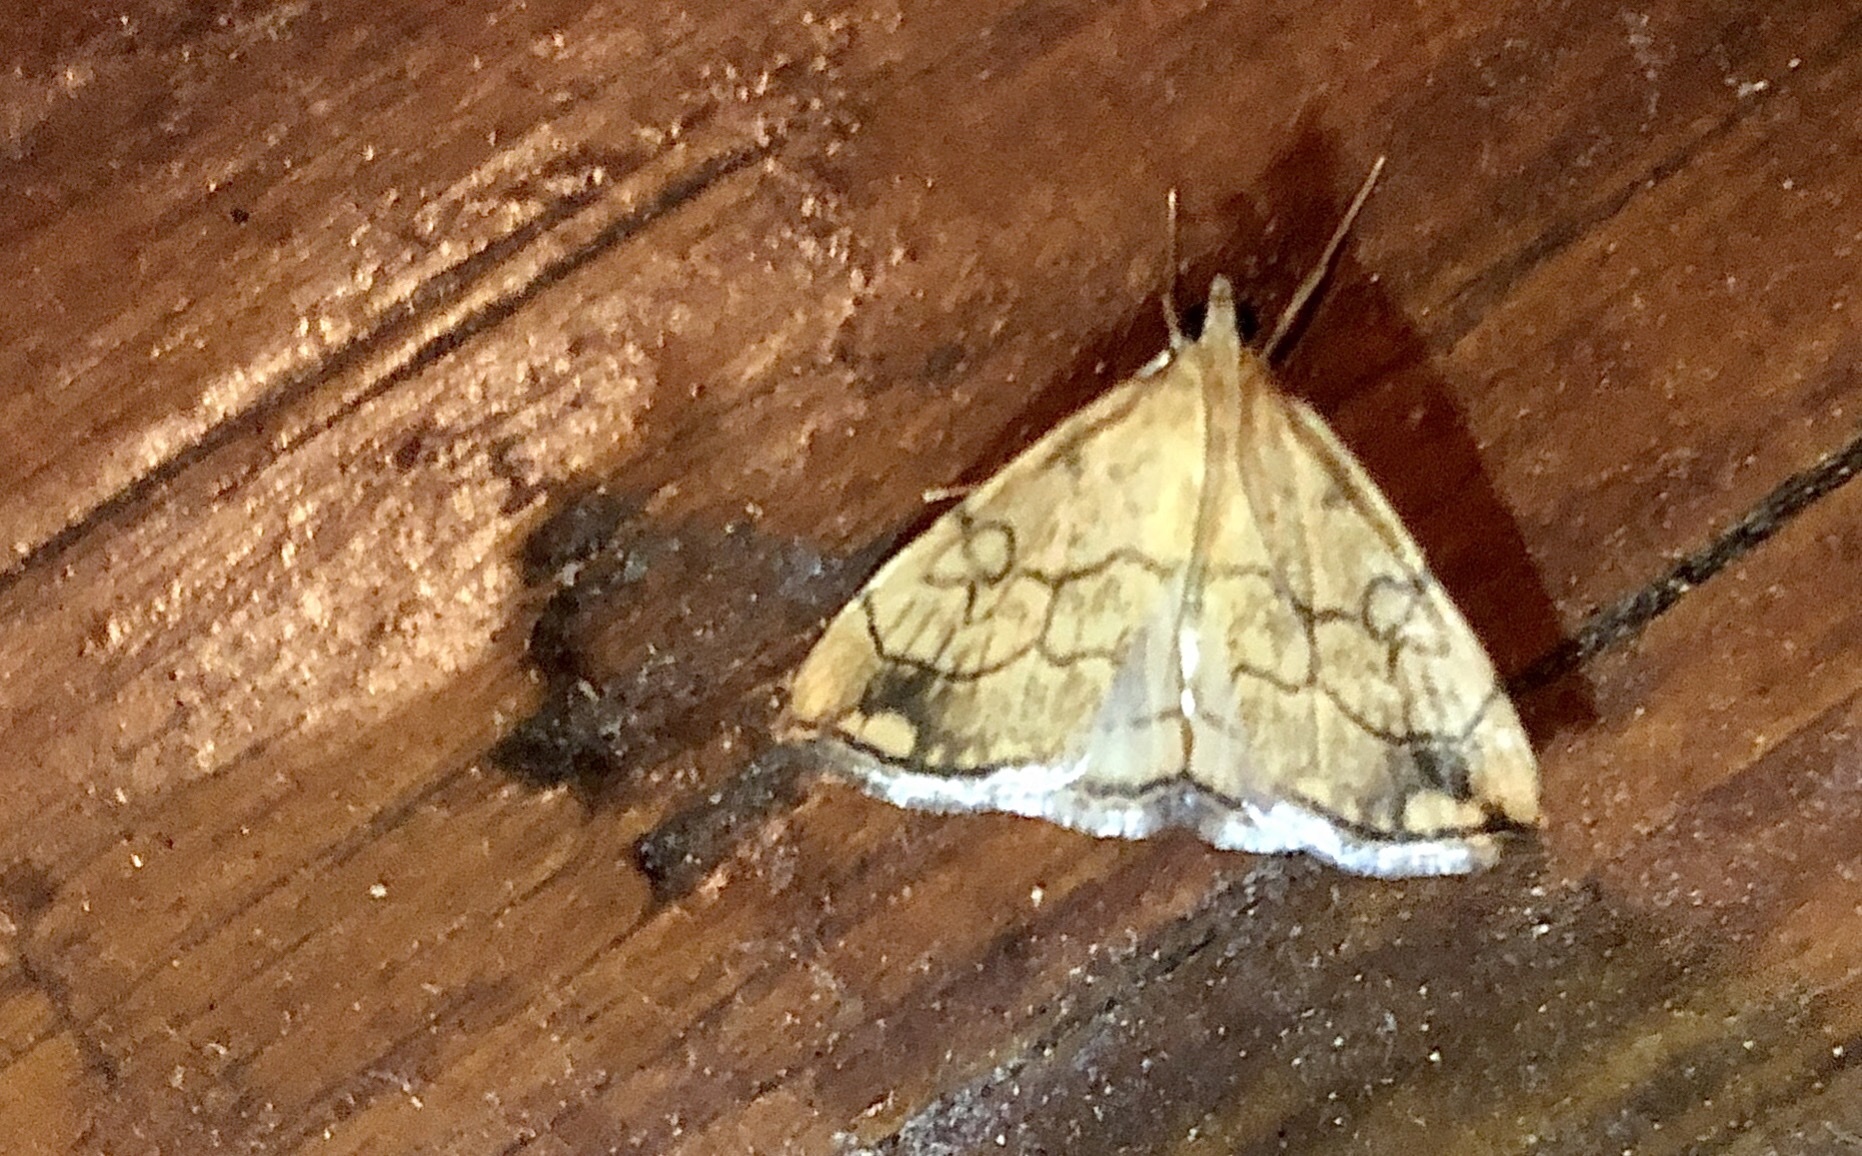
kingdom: Animalia
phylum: Arthropoda
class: Insecta
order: Lepidoptera
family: Crambidae
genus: Evergestis
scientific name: Evergestis pallidata
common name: Chequered pearl
